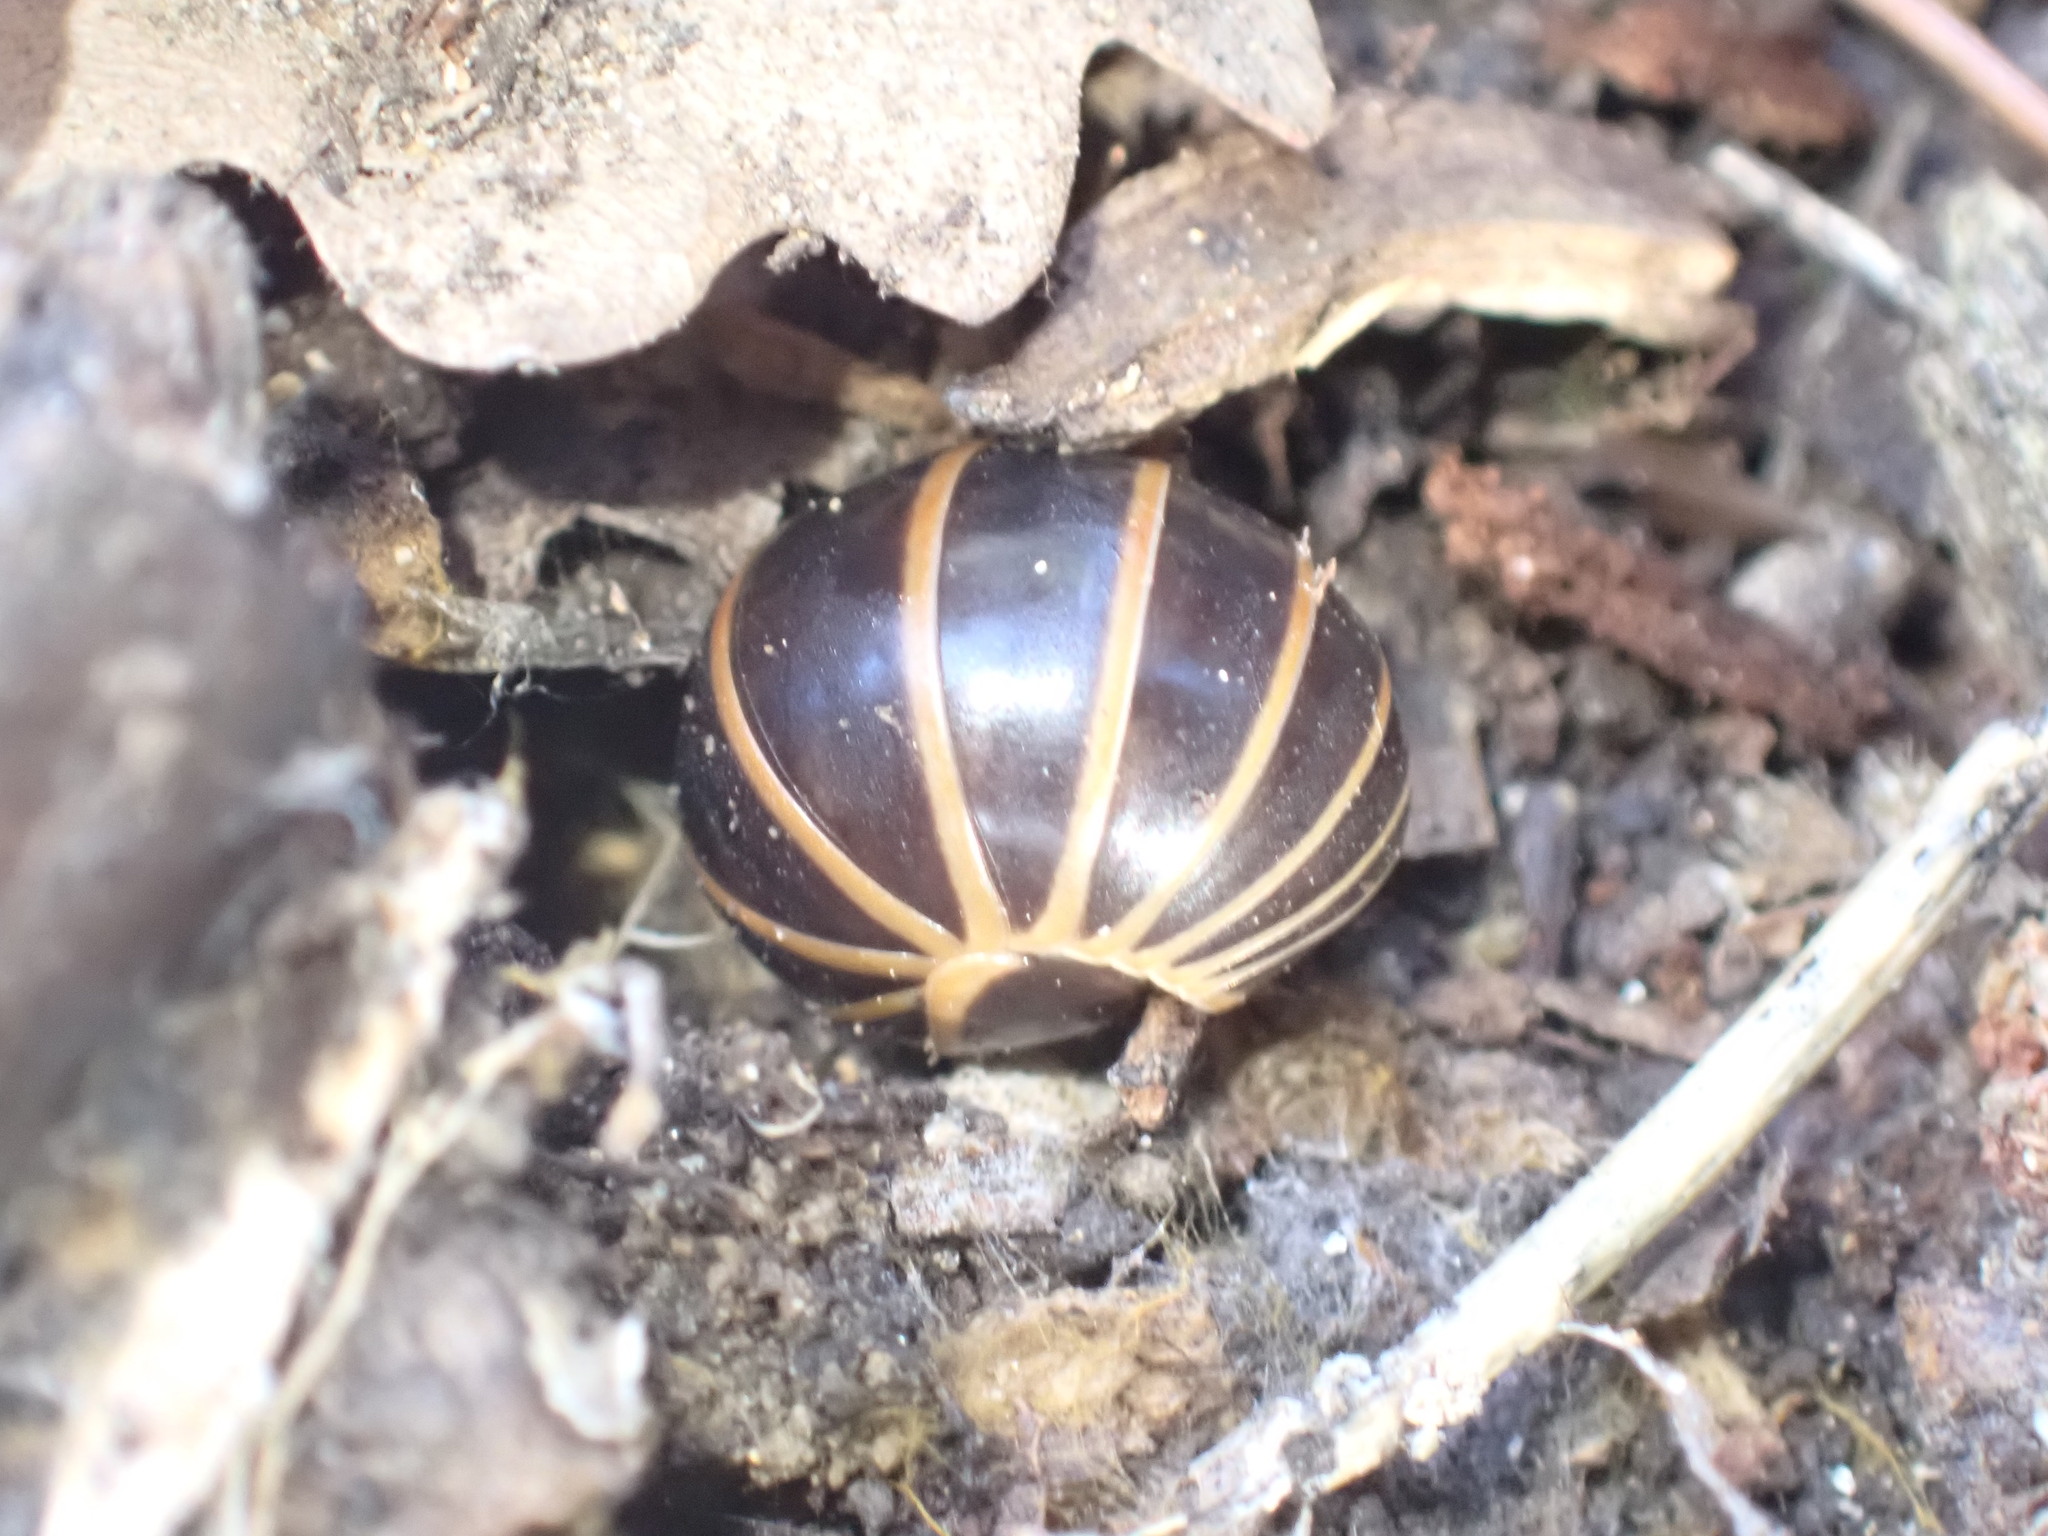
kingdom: Animalia
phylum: Arthropoda
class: Diplopoda
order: Glomerida
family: Glomeridae
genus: Glomeris
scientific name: Glomeris marginata
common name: Bordered pill millipede
